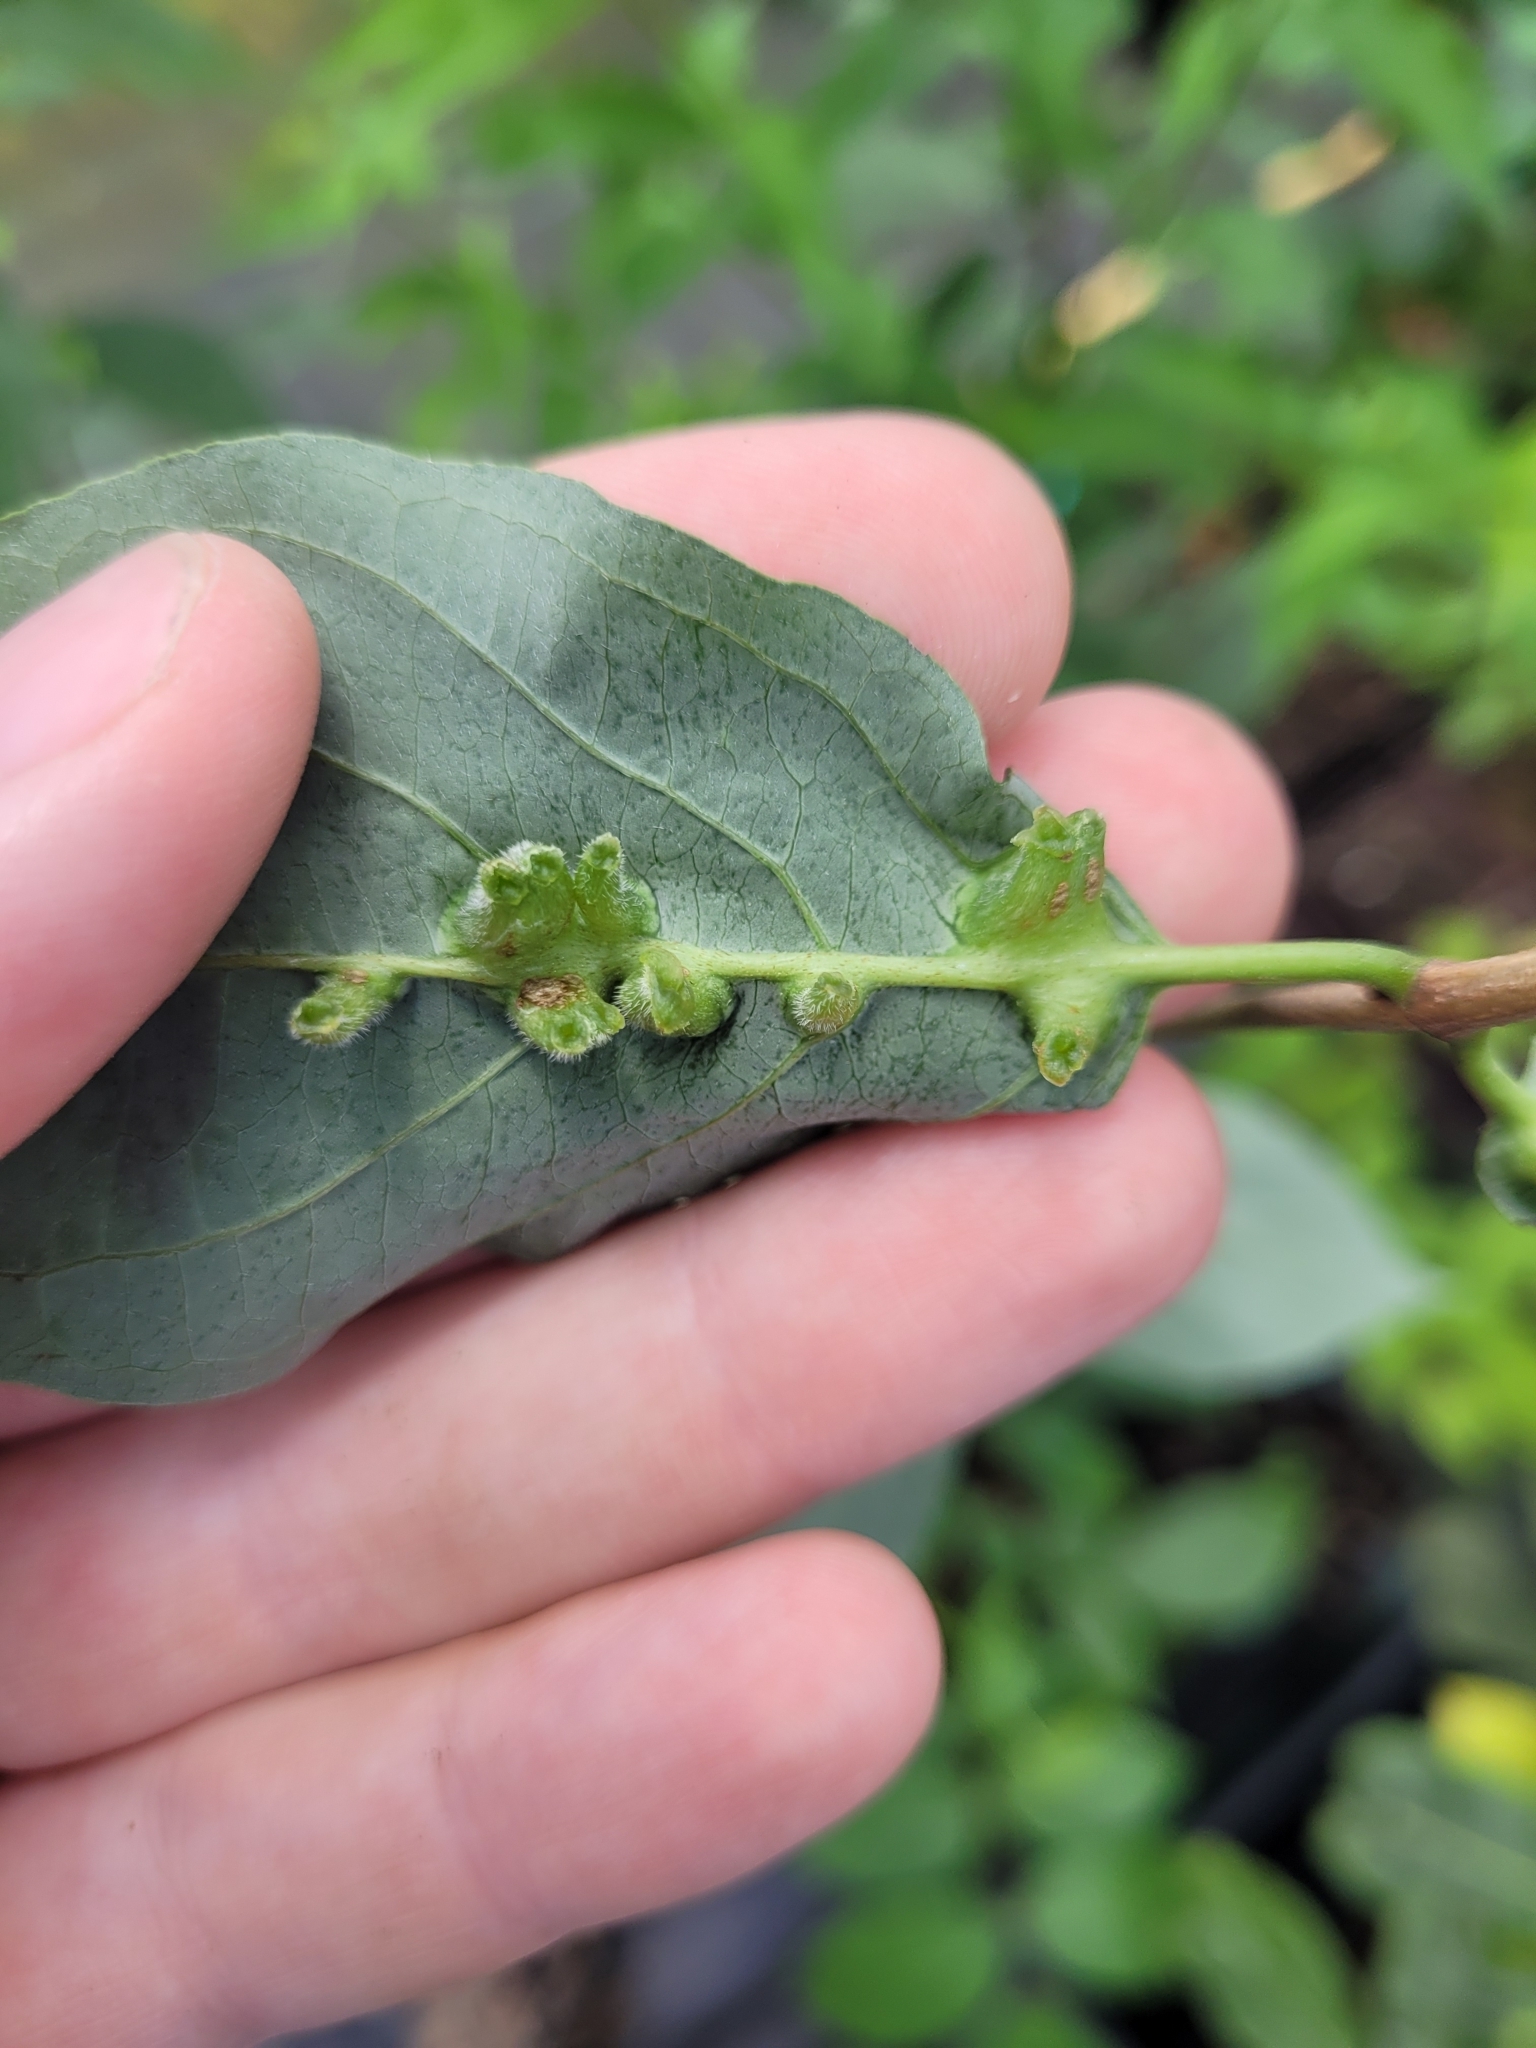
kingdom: Animalia
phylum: Arthropoda
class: Insecta
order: Diptera
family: Cecidomyiidae
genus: Dasineura
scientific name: Dasineura tuba
